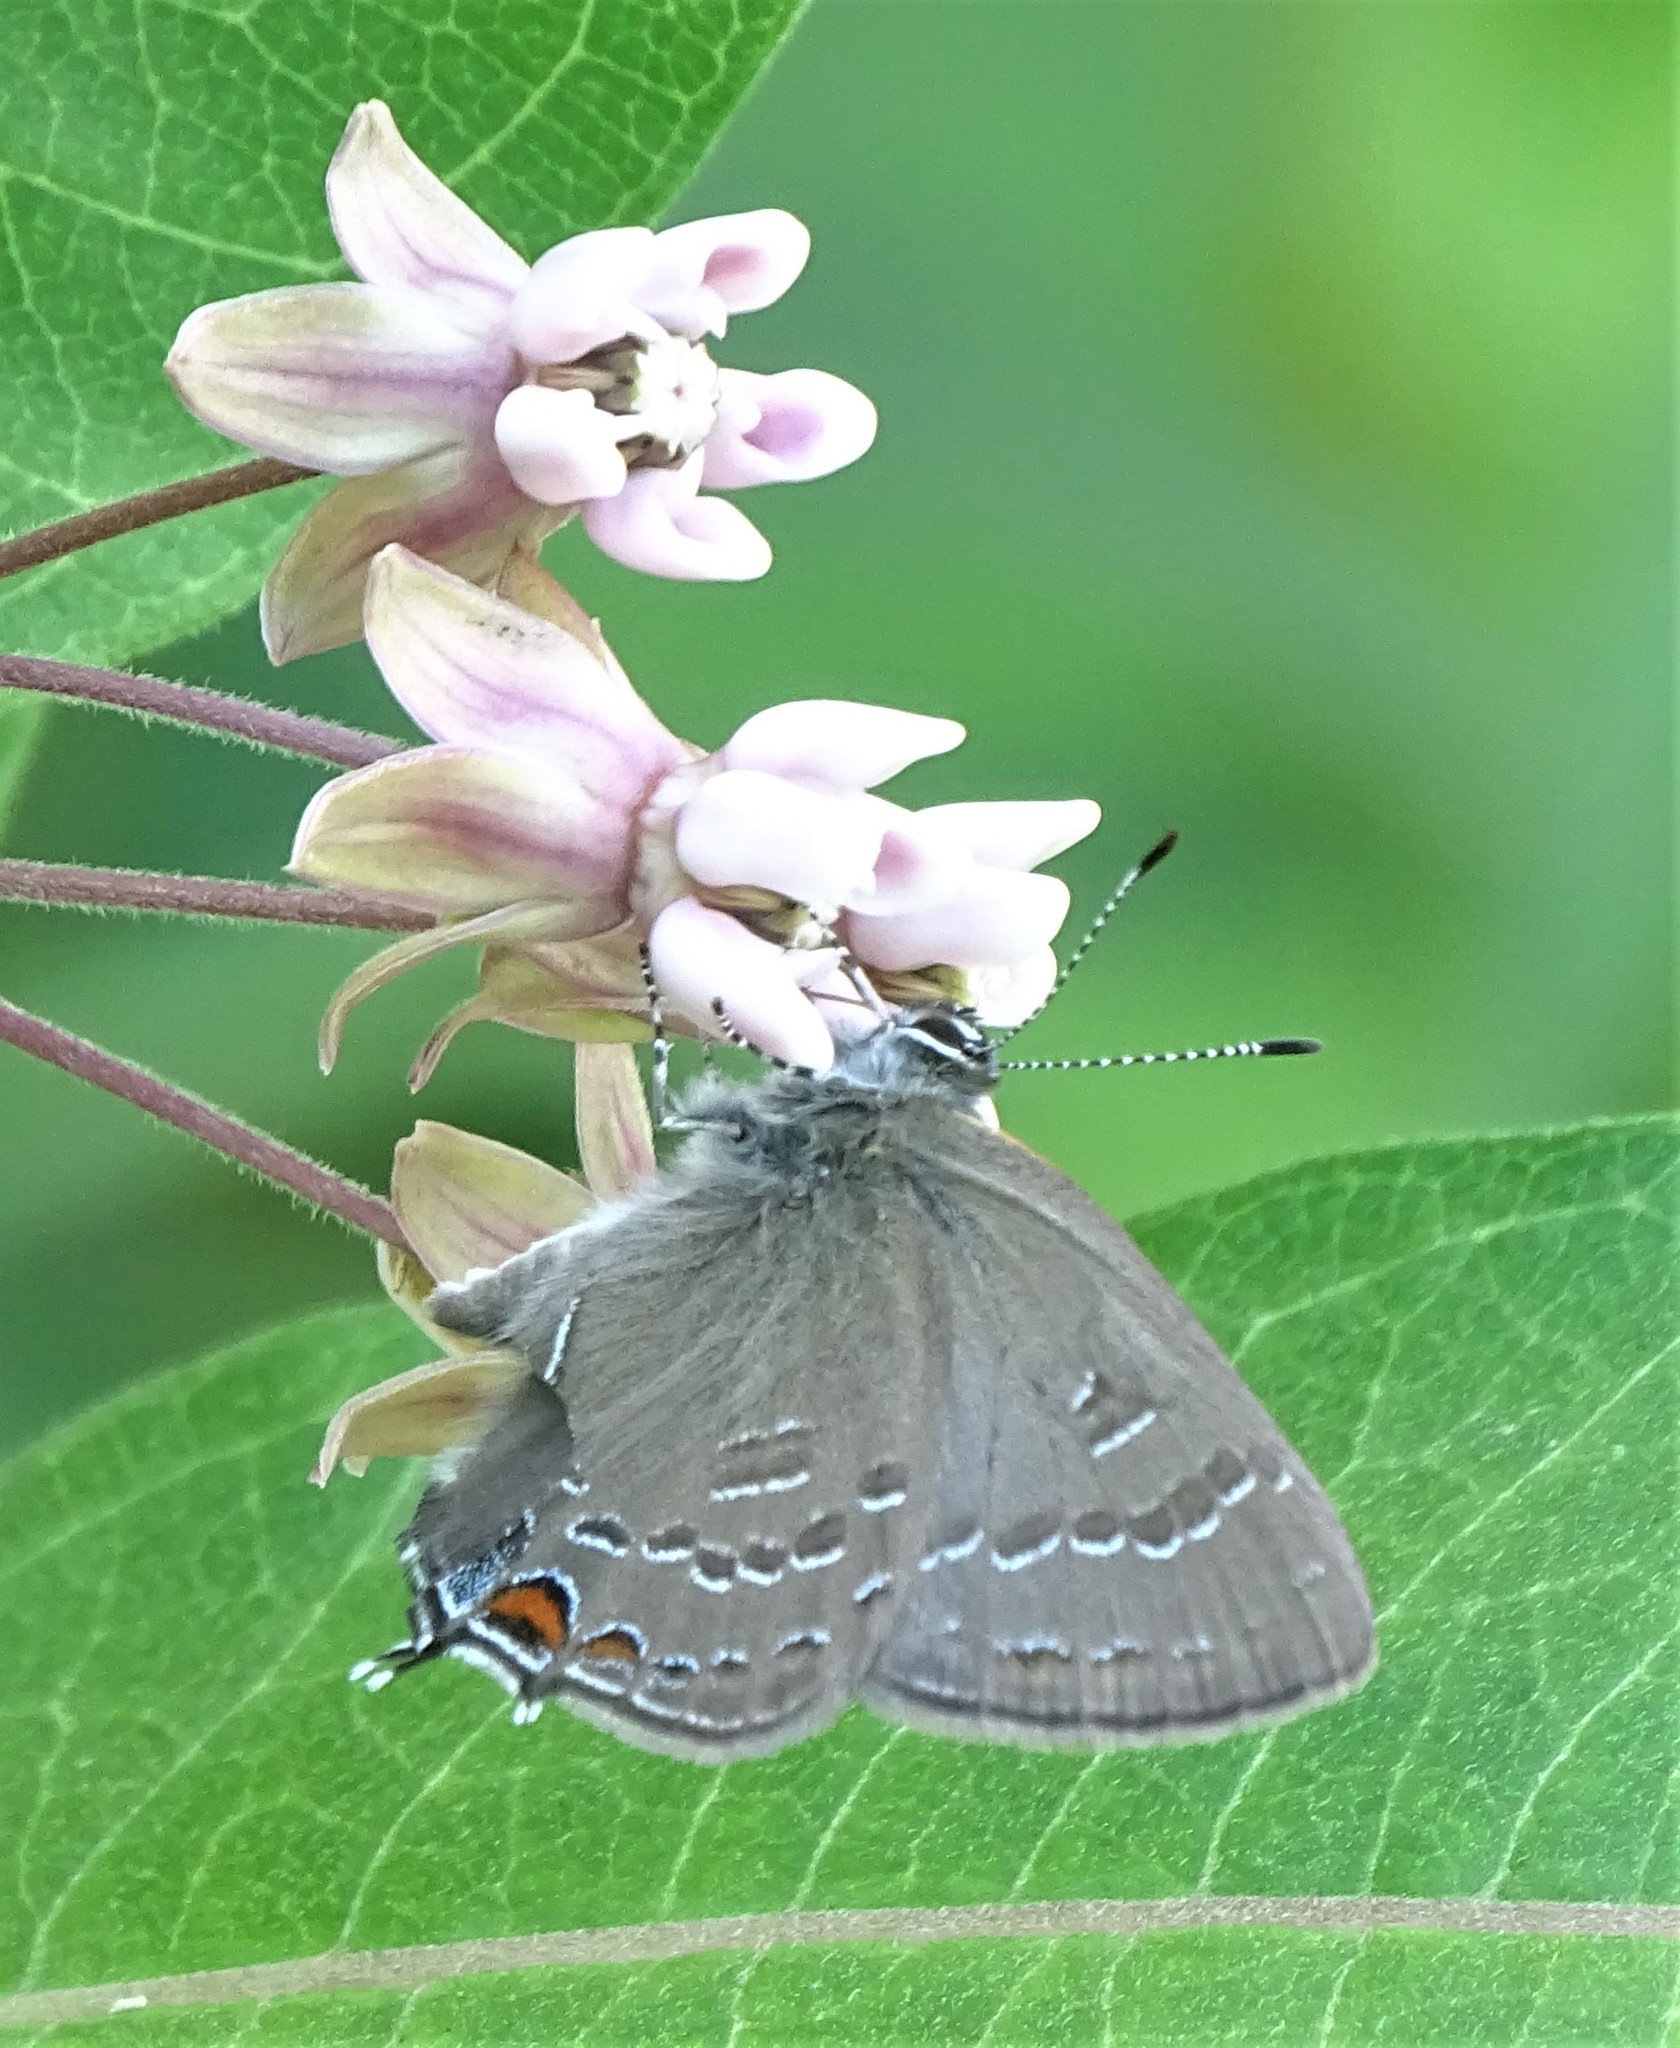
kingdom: Animalia
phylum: Arthropoda
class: Insecta
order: Lepidoptera
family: Lycaenidae
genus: Satyrium
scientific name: Satyrium calanus
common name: Banded hairstreak
